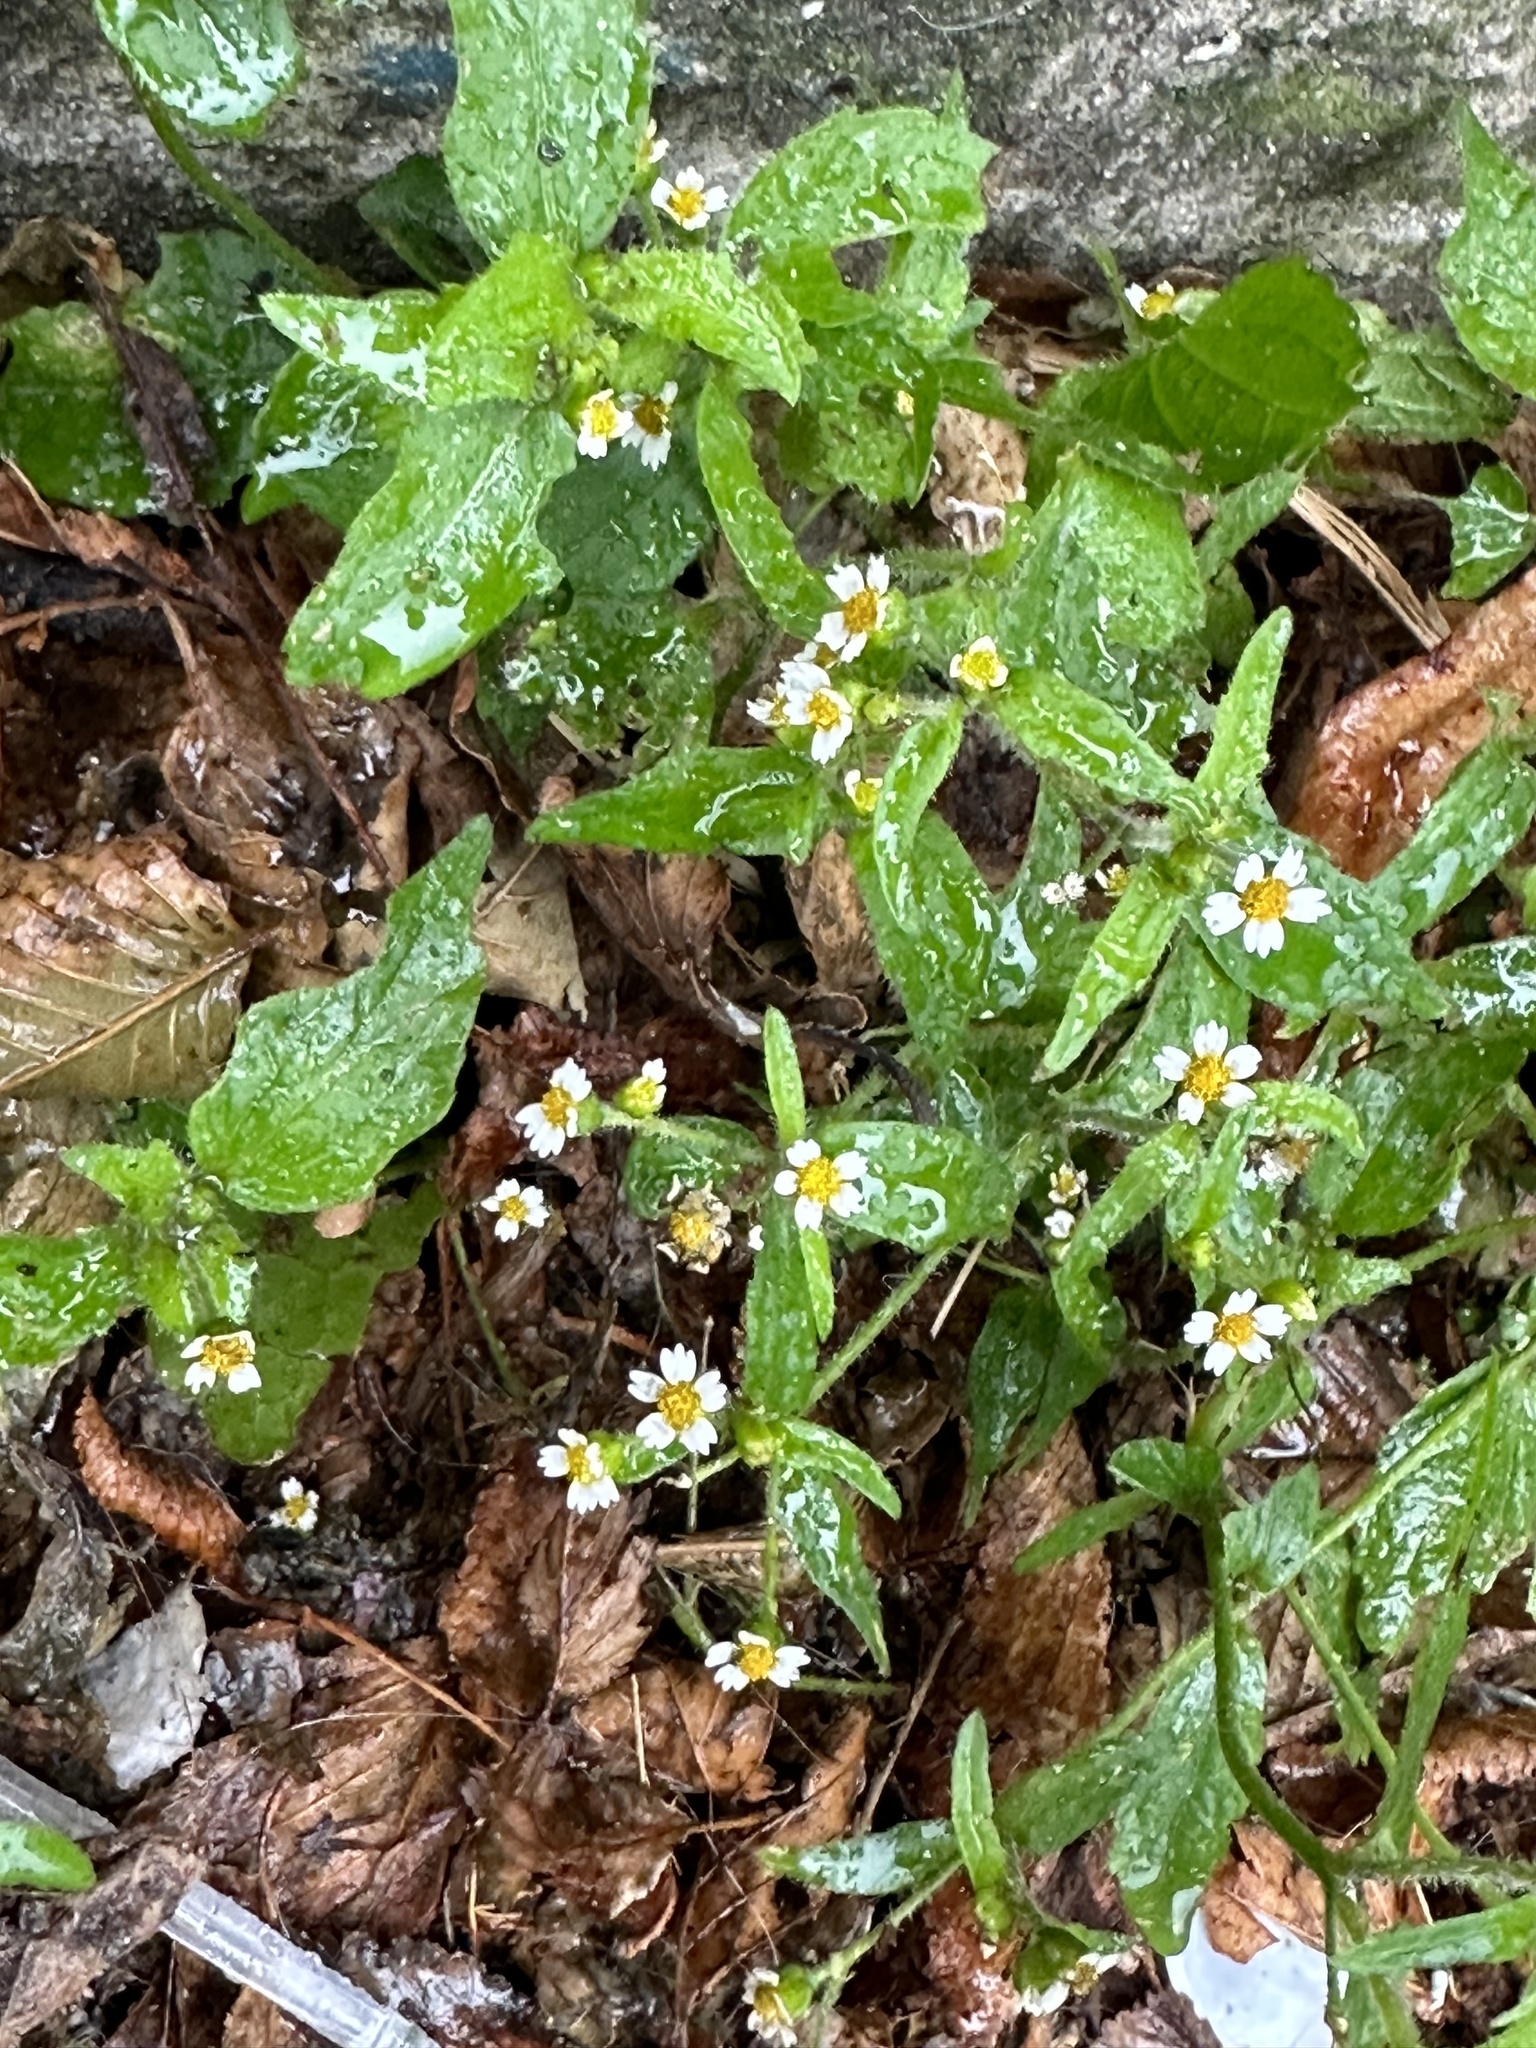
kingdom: Plantae
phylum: Tracheophyta
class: Magnoliopsida
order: Asterales
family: Asteraceae
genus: Galinsoga
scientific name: Galinsoga quadriradiata
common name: Shaggy soldier
